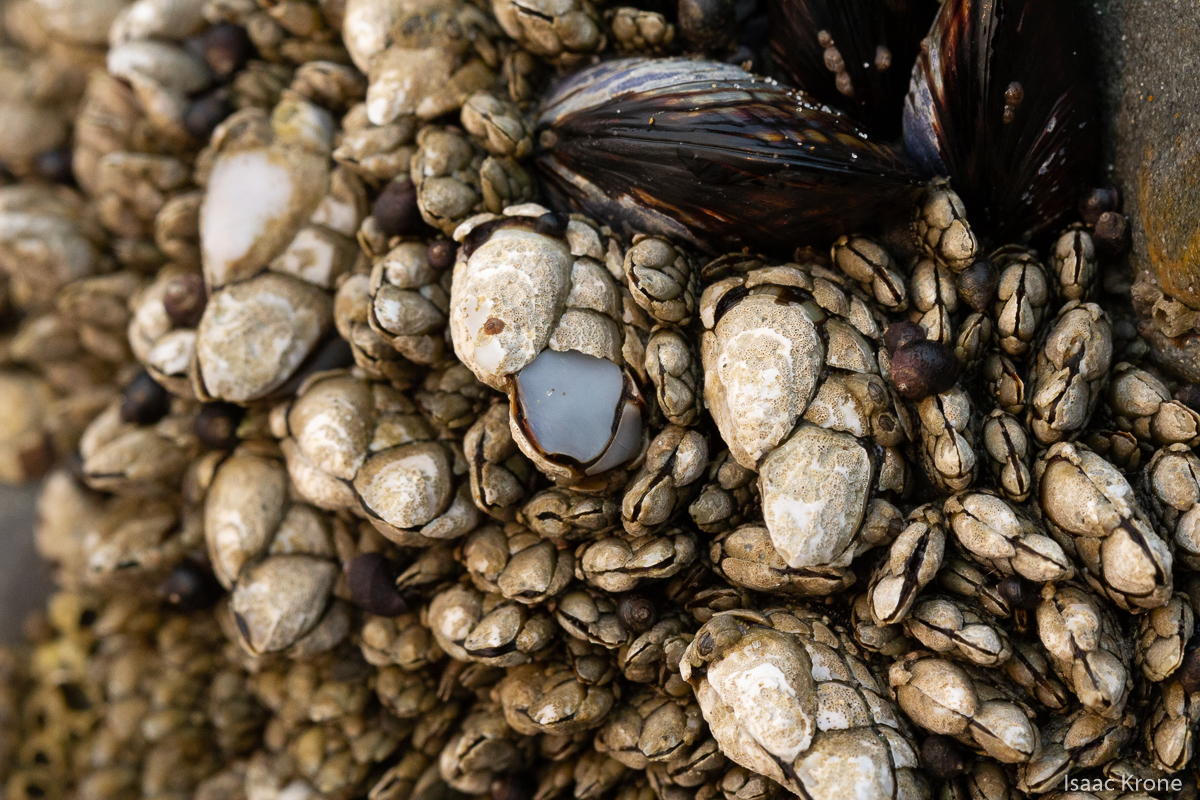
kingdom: Animalia
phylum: Mollusca
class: Bivalvia
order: Mytilida
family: Mytilidae
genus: Mytilus
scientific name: Mytilus californianus
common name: California mussel
